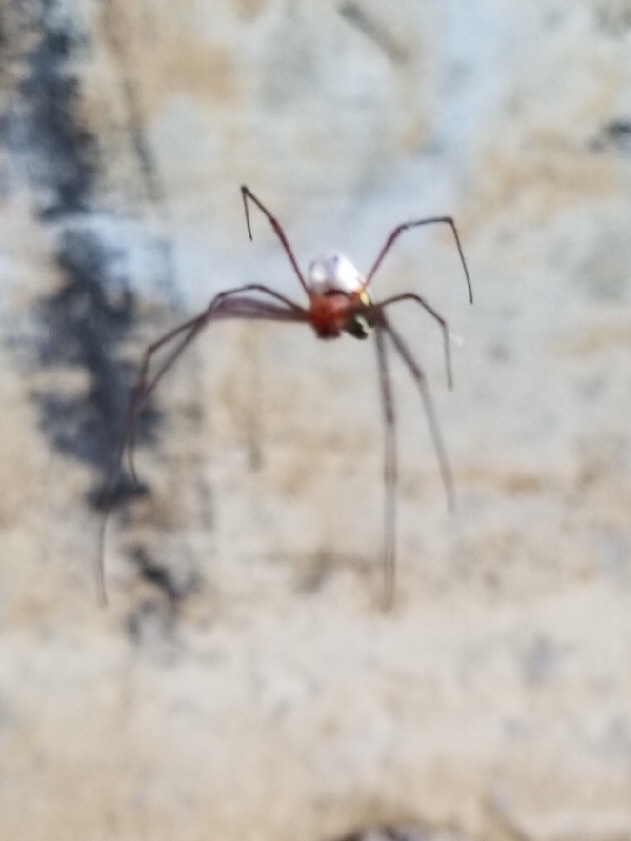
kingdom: Animalia
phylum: Arthropoda
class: Arachnida
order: Araneae
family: Tetragnathidae
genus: Leucauge
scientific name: Leucauge argyra
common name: Longjawed orb weavers
